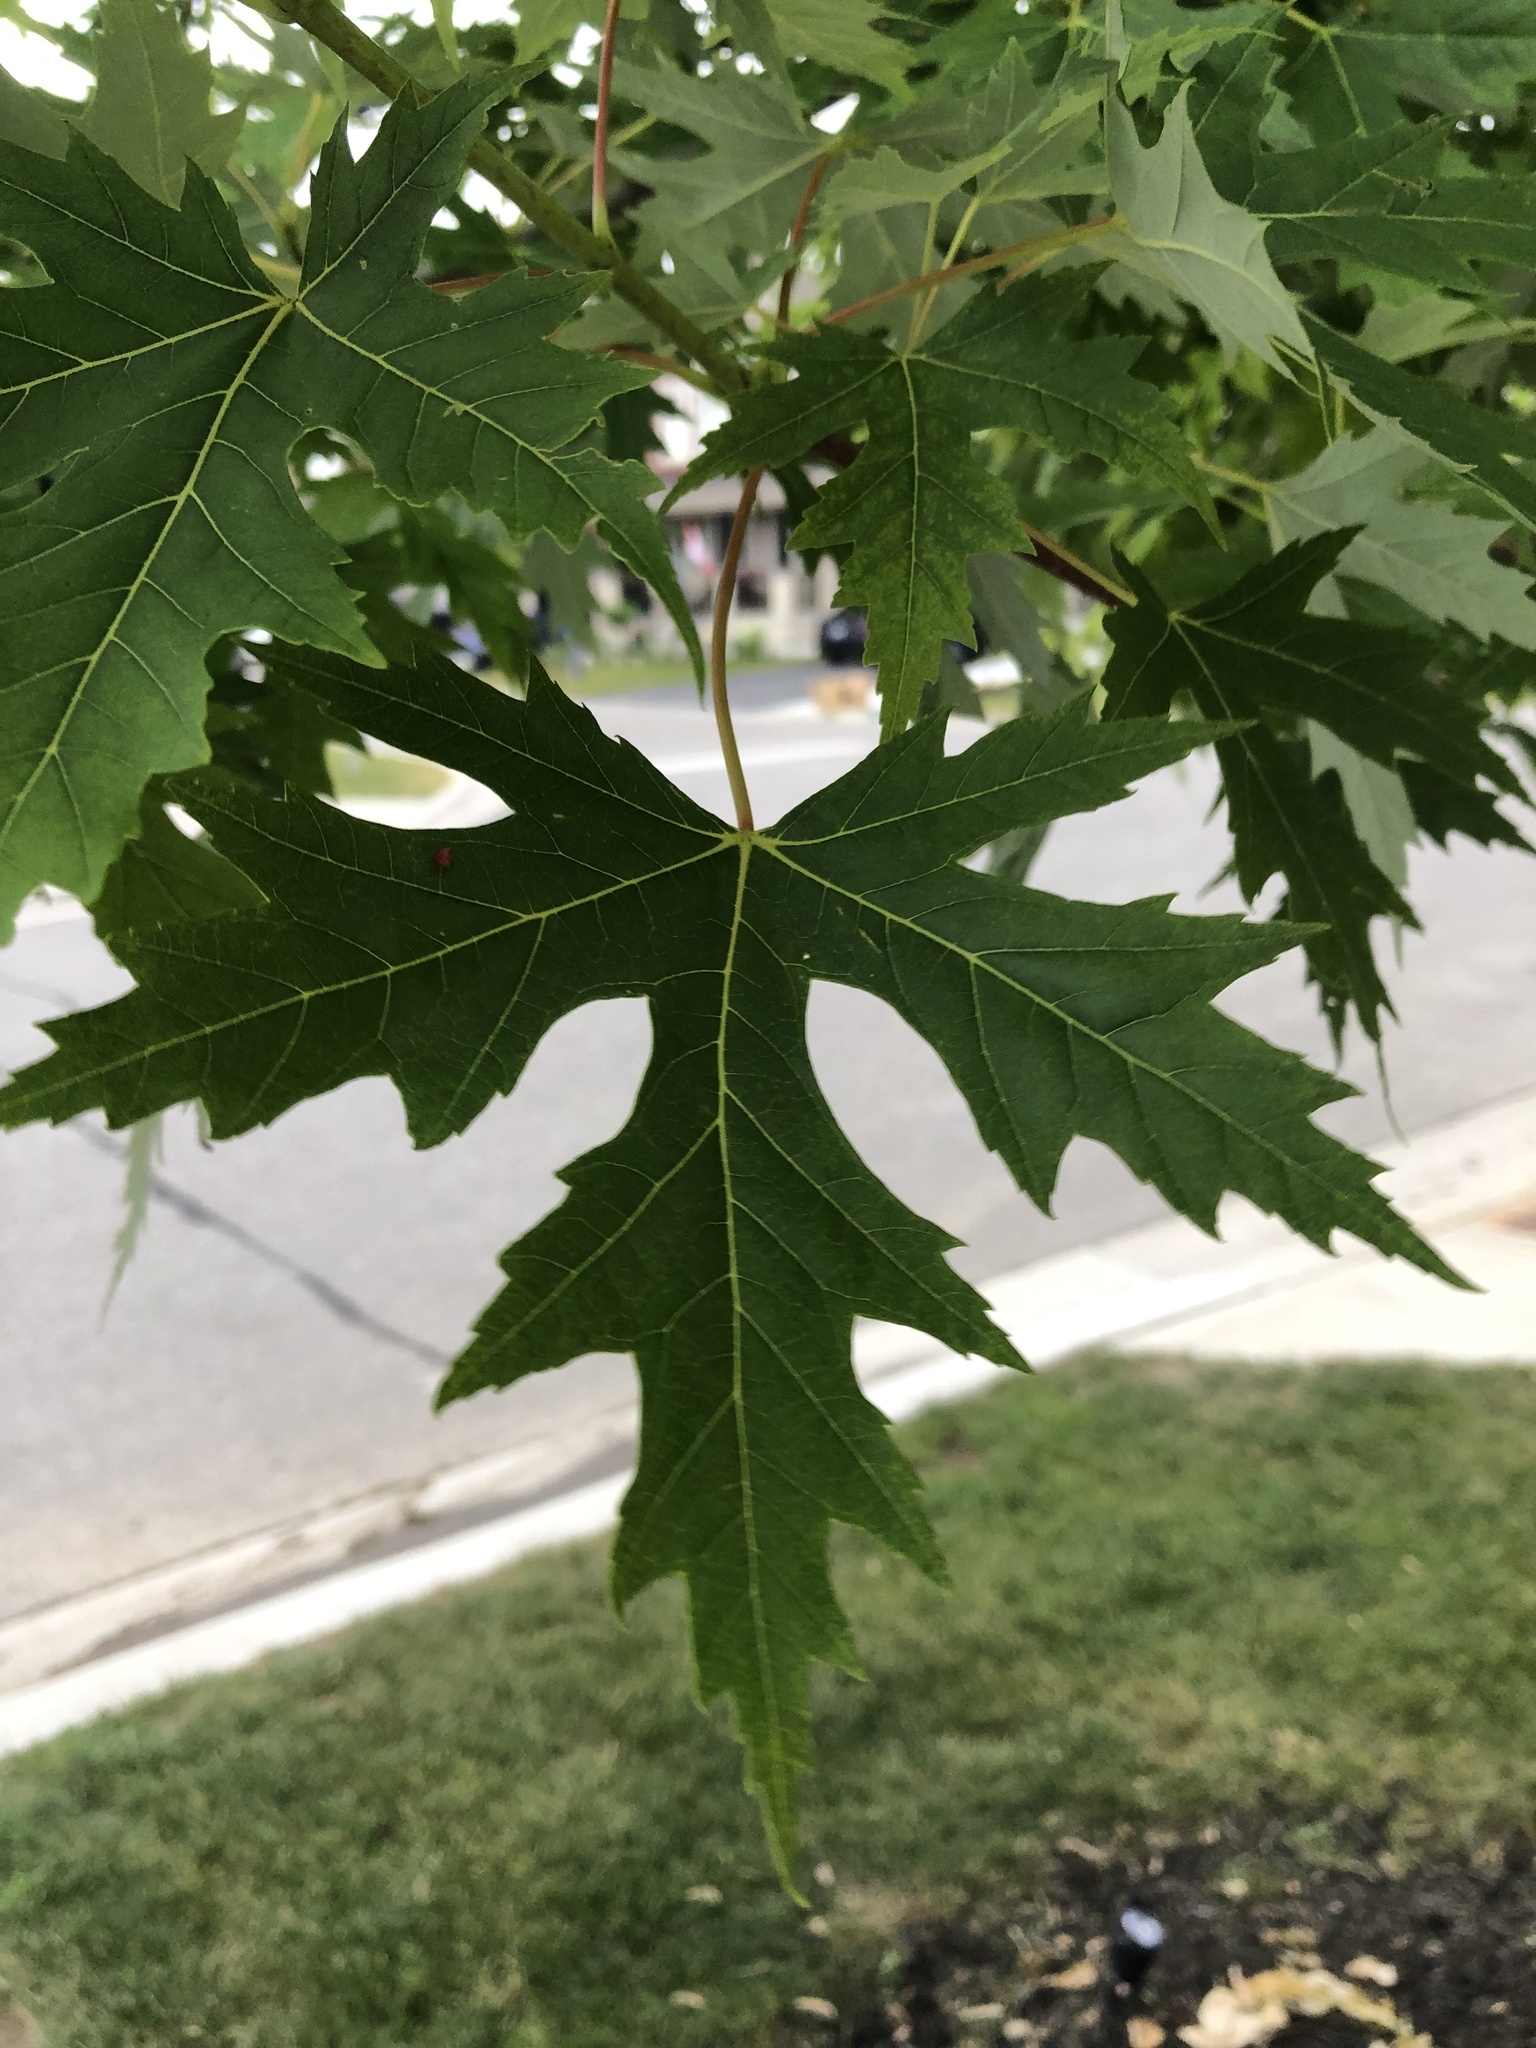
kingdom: Plantae
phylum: Tracheophyta
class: Magnoliopsida
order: Sapindales
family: Sapindaceae
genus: Acer
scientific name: Acer saccharinum
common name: Silver maple
